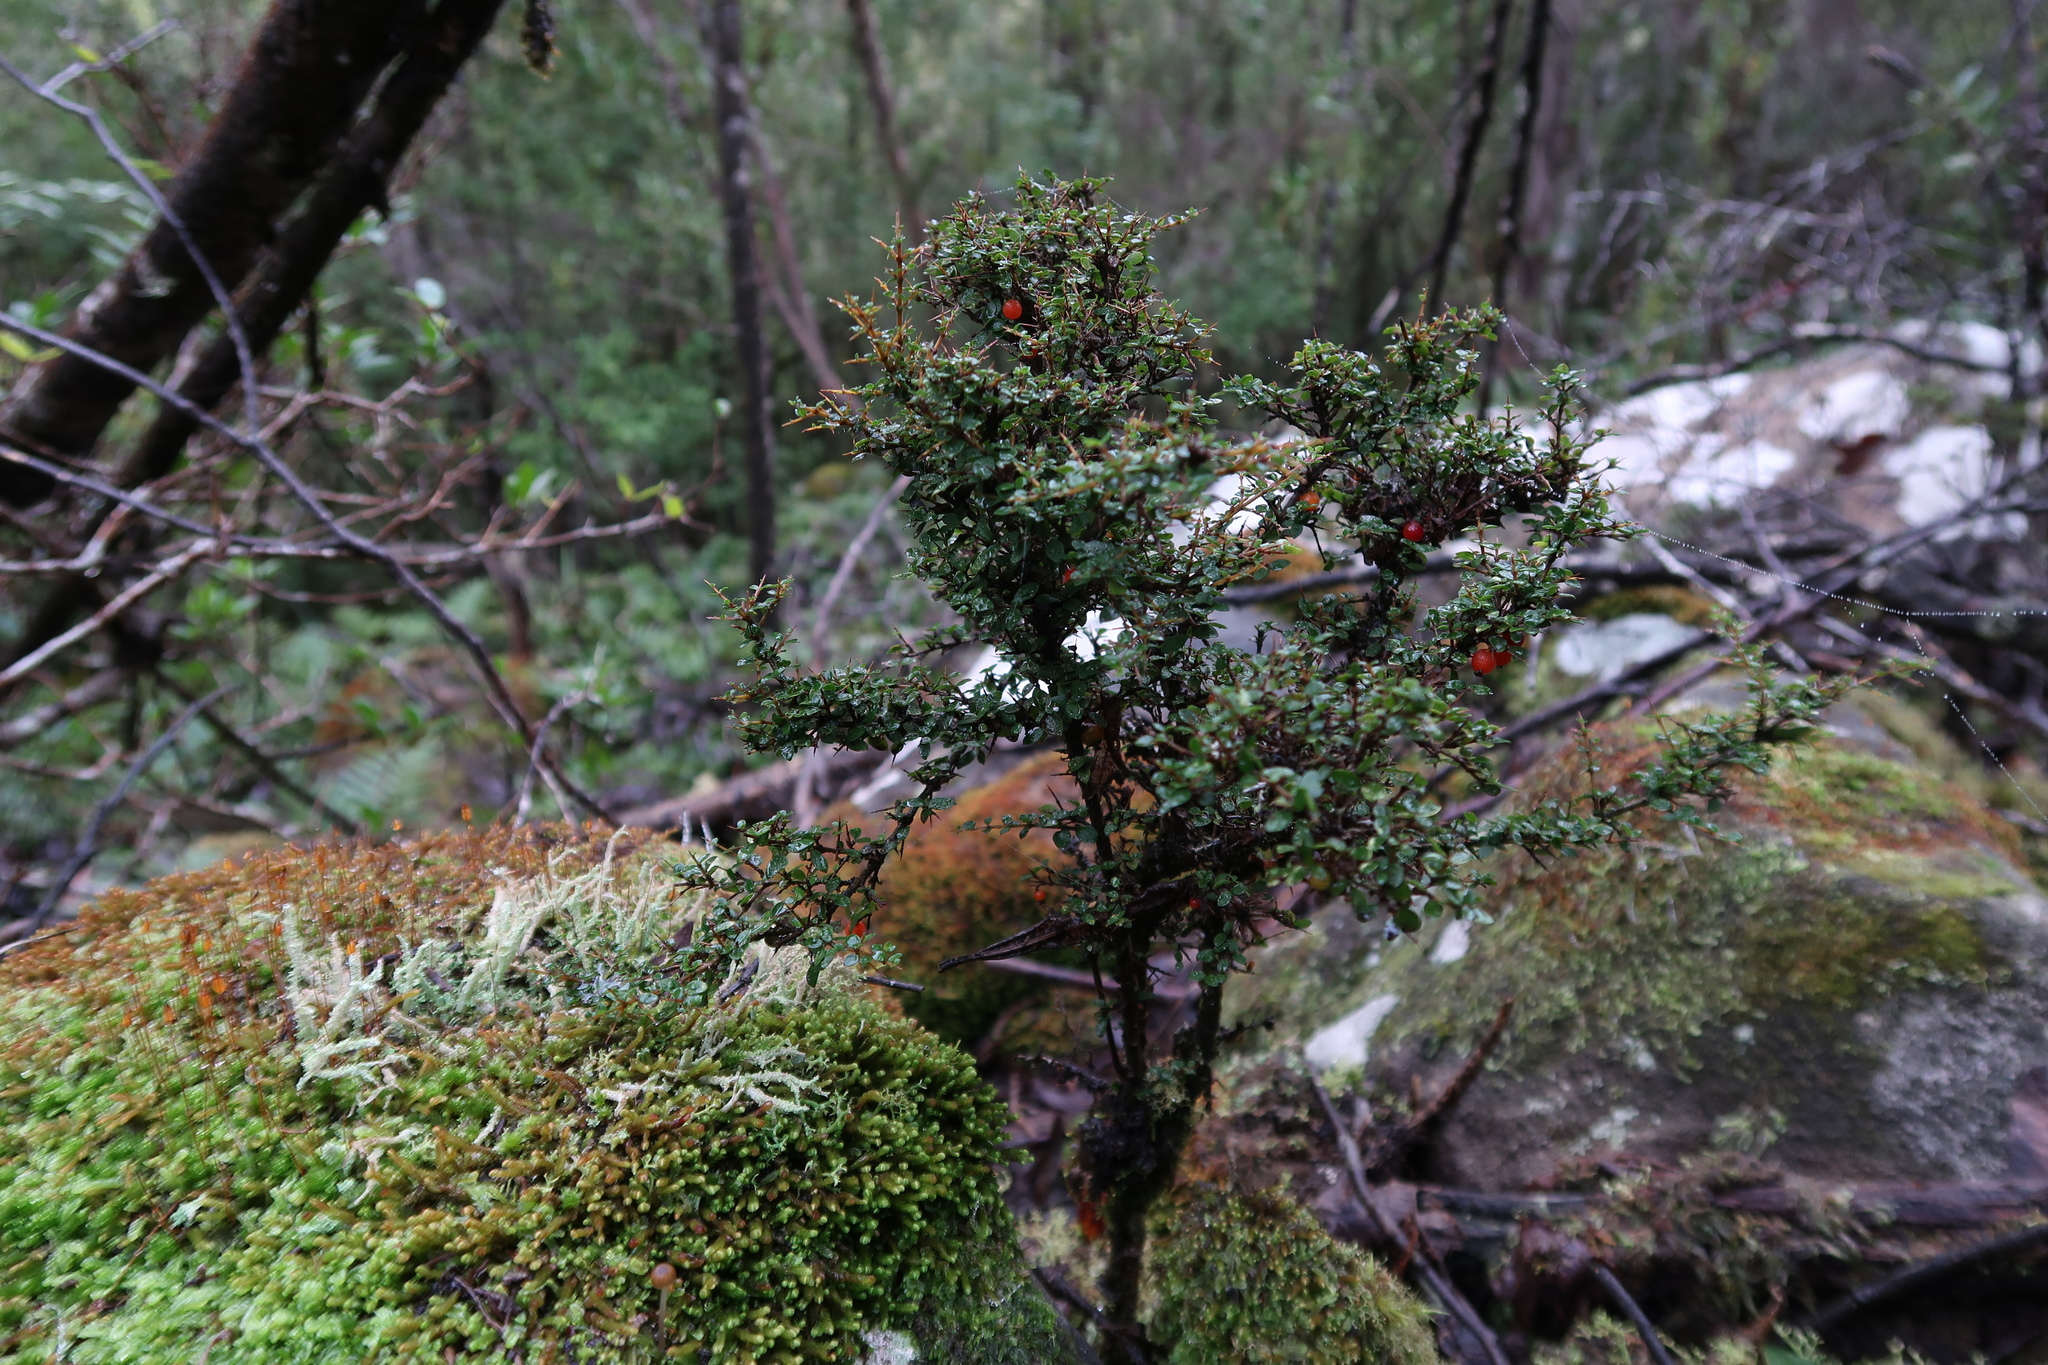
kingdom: Plantae
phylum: Tracheophyta
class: Magnoliopsida
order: Gentianales
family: Rubiaceae
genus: Coprosma
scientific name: Coprosma nitida
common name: Shining coprosma
